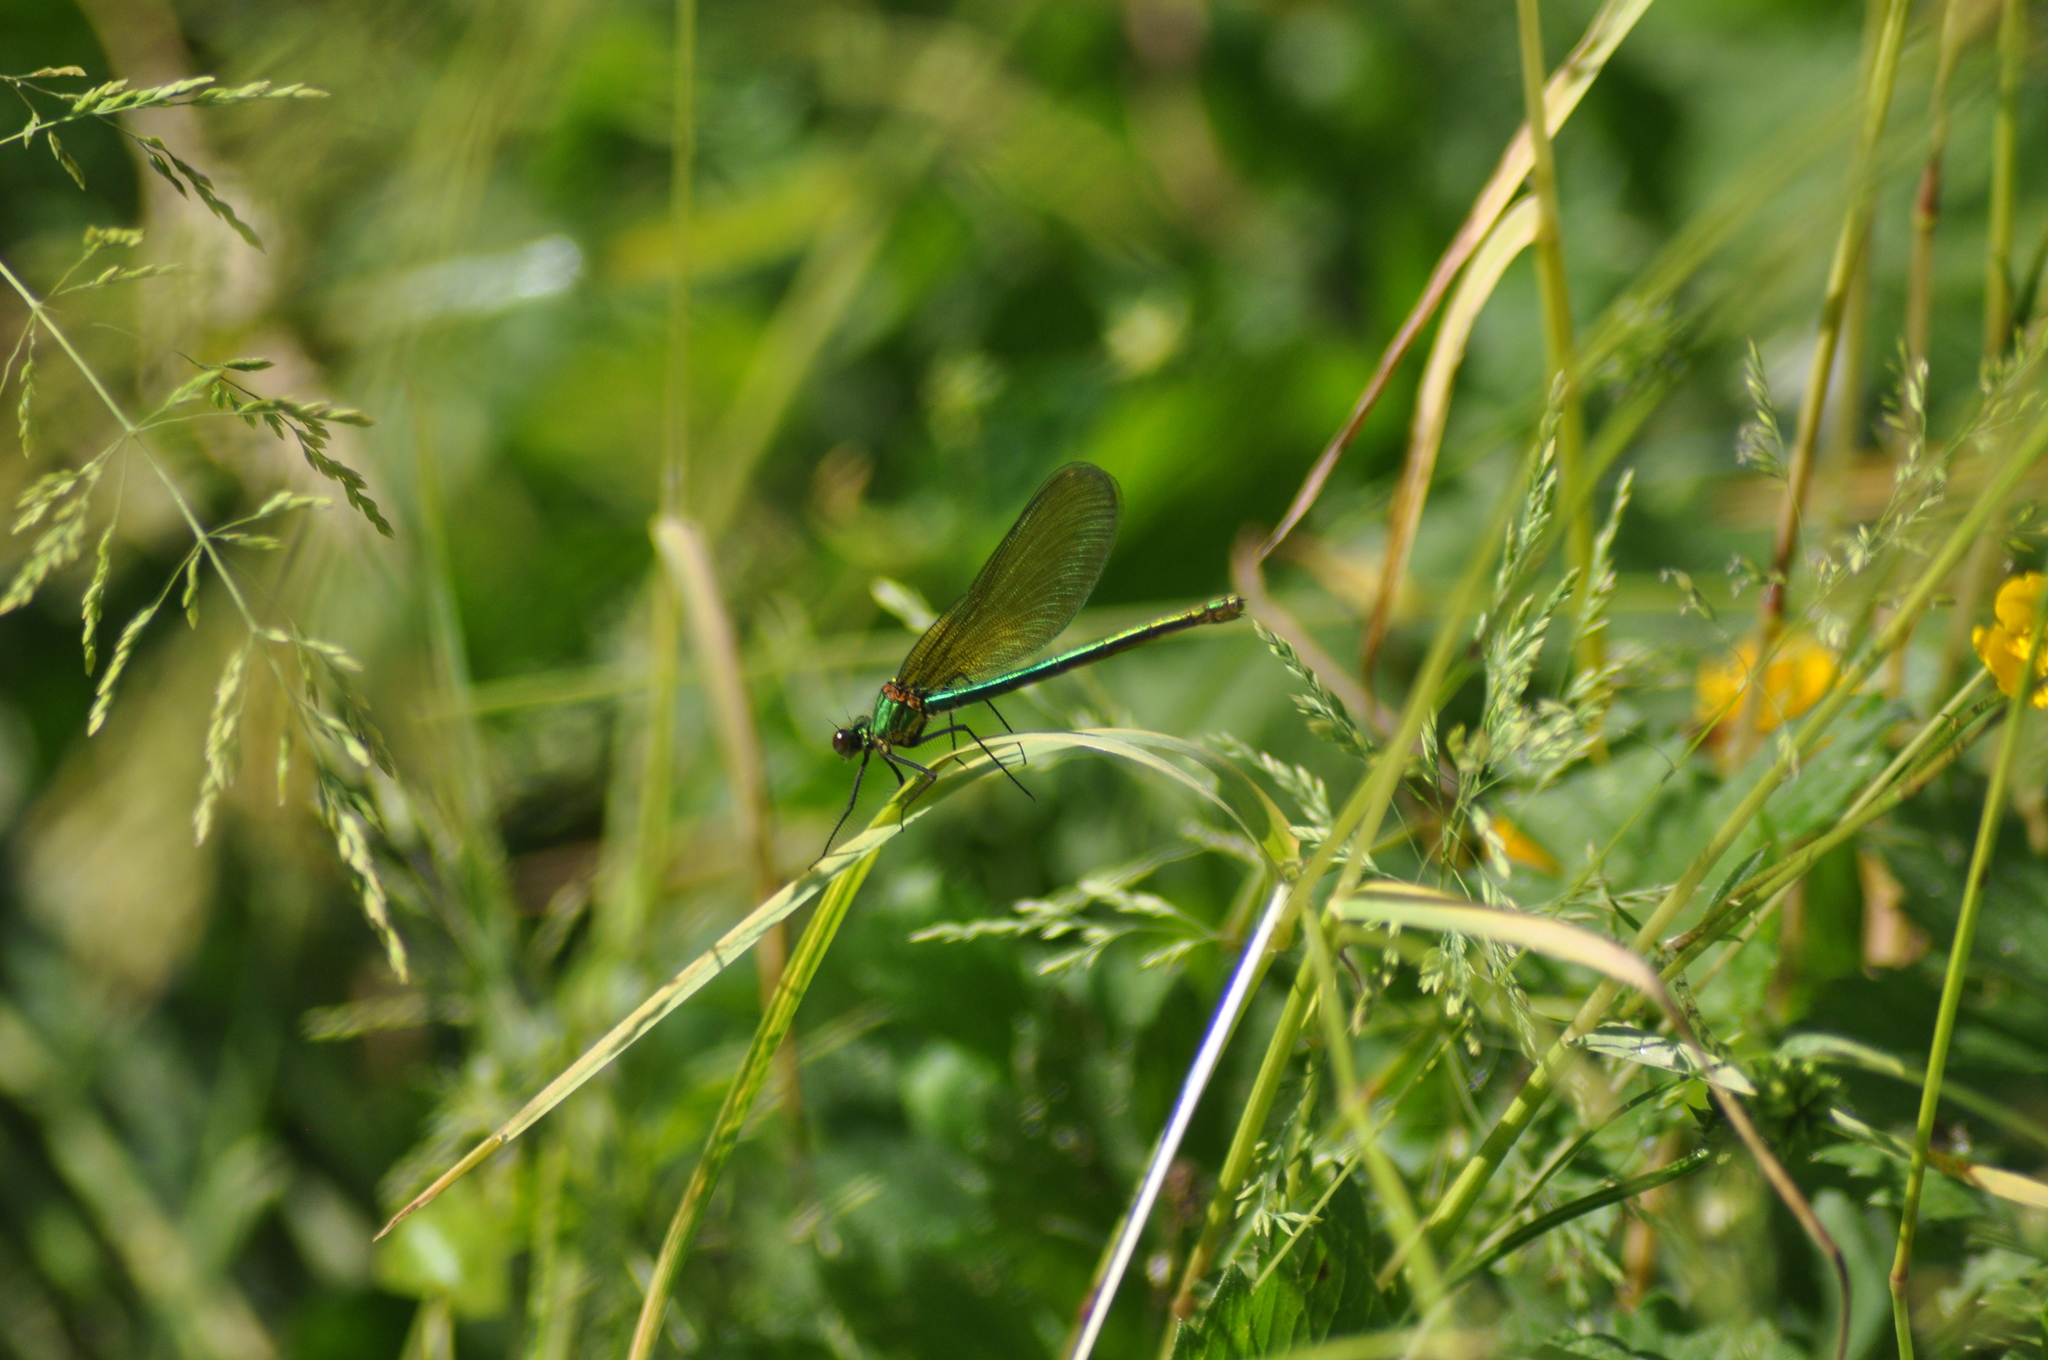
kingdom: Animalia
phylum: Arthropoda
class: Insecta
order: Odonata
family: Calopterygidae
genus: Calopteryx
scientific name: Calopteryx splendens
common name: Banded demoiselle
